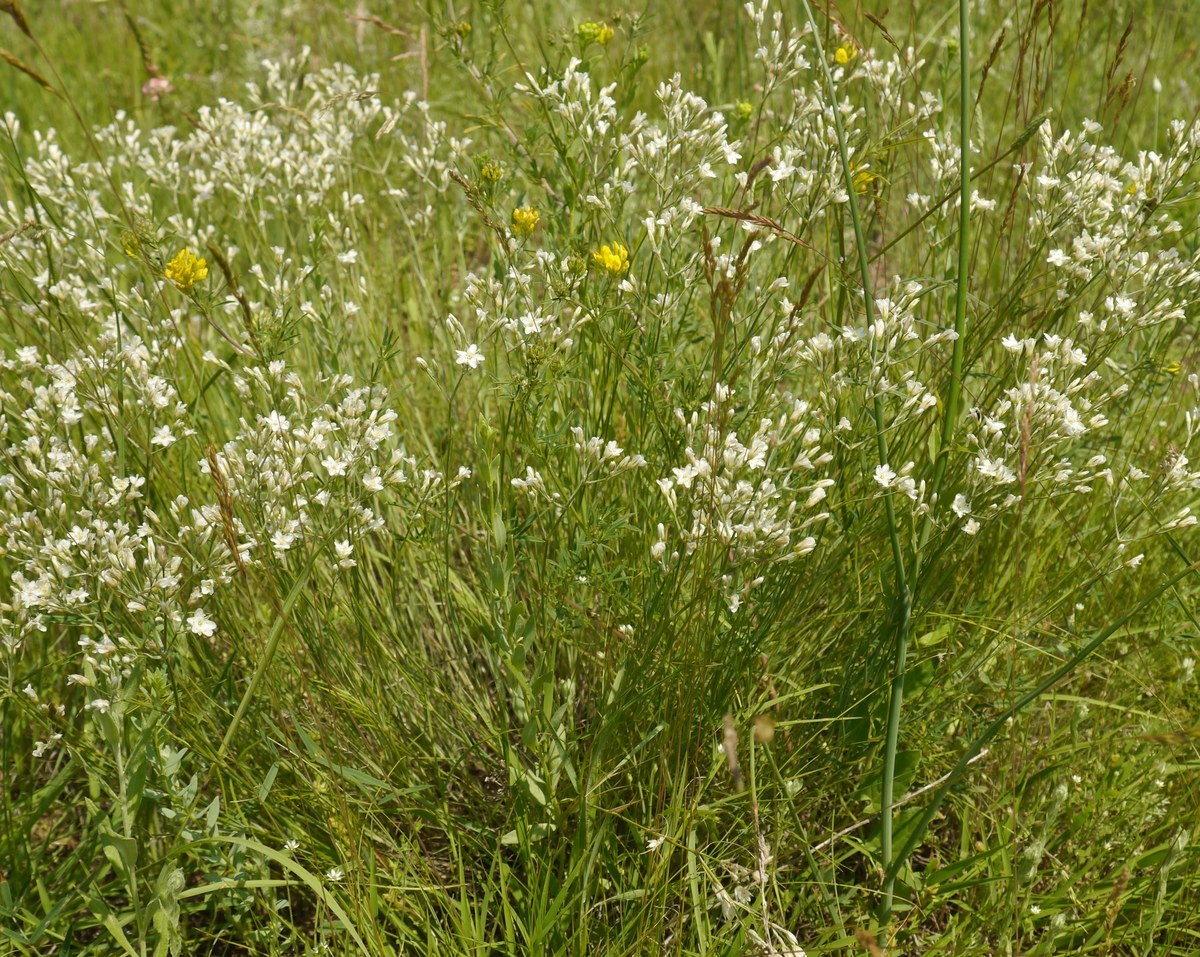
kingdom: Plantae
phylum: Tracheophyta
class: Magnoliopsida
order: Caryophyllales
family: Caryophyllaceae
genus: Eremogone
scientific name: Eremogone rigida
